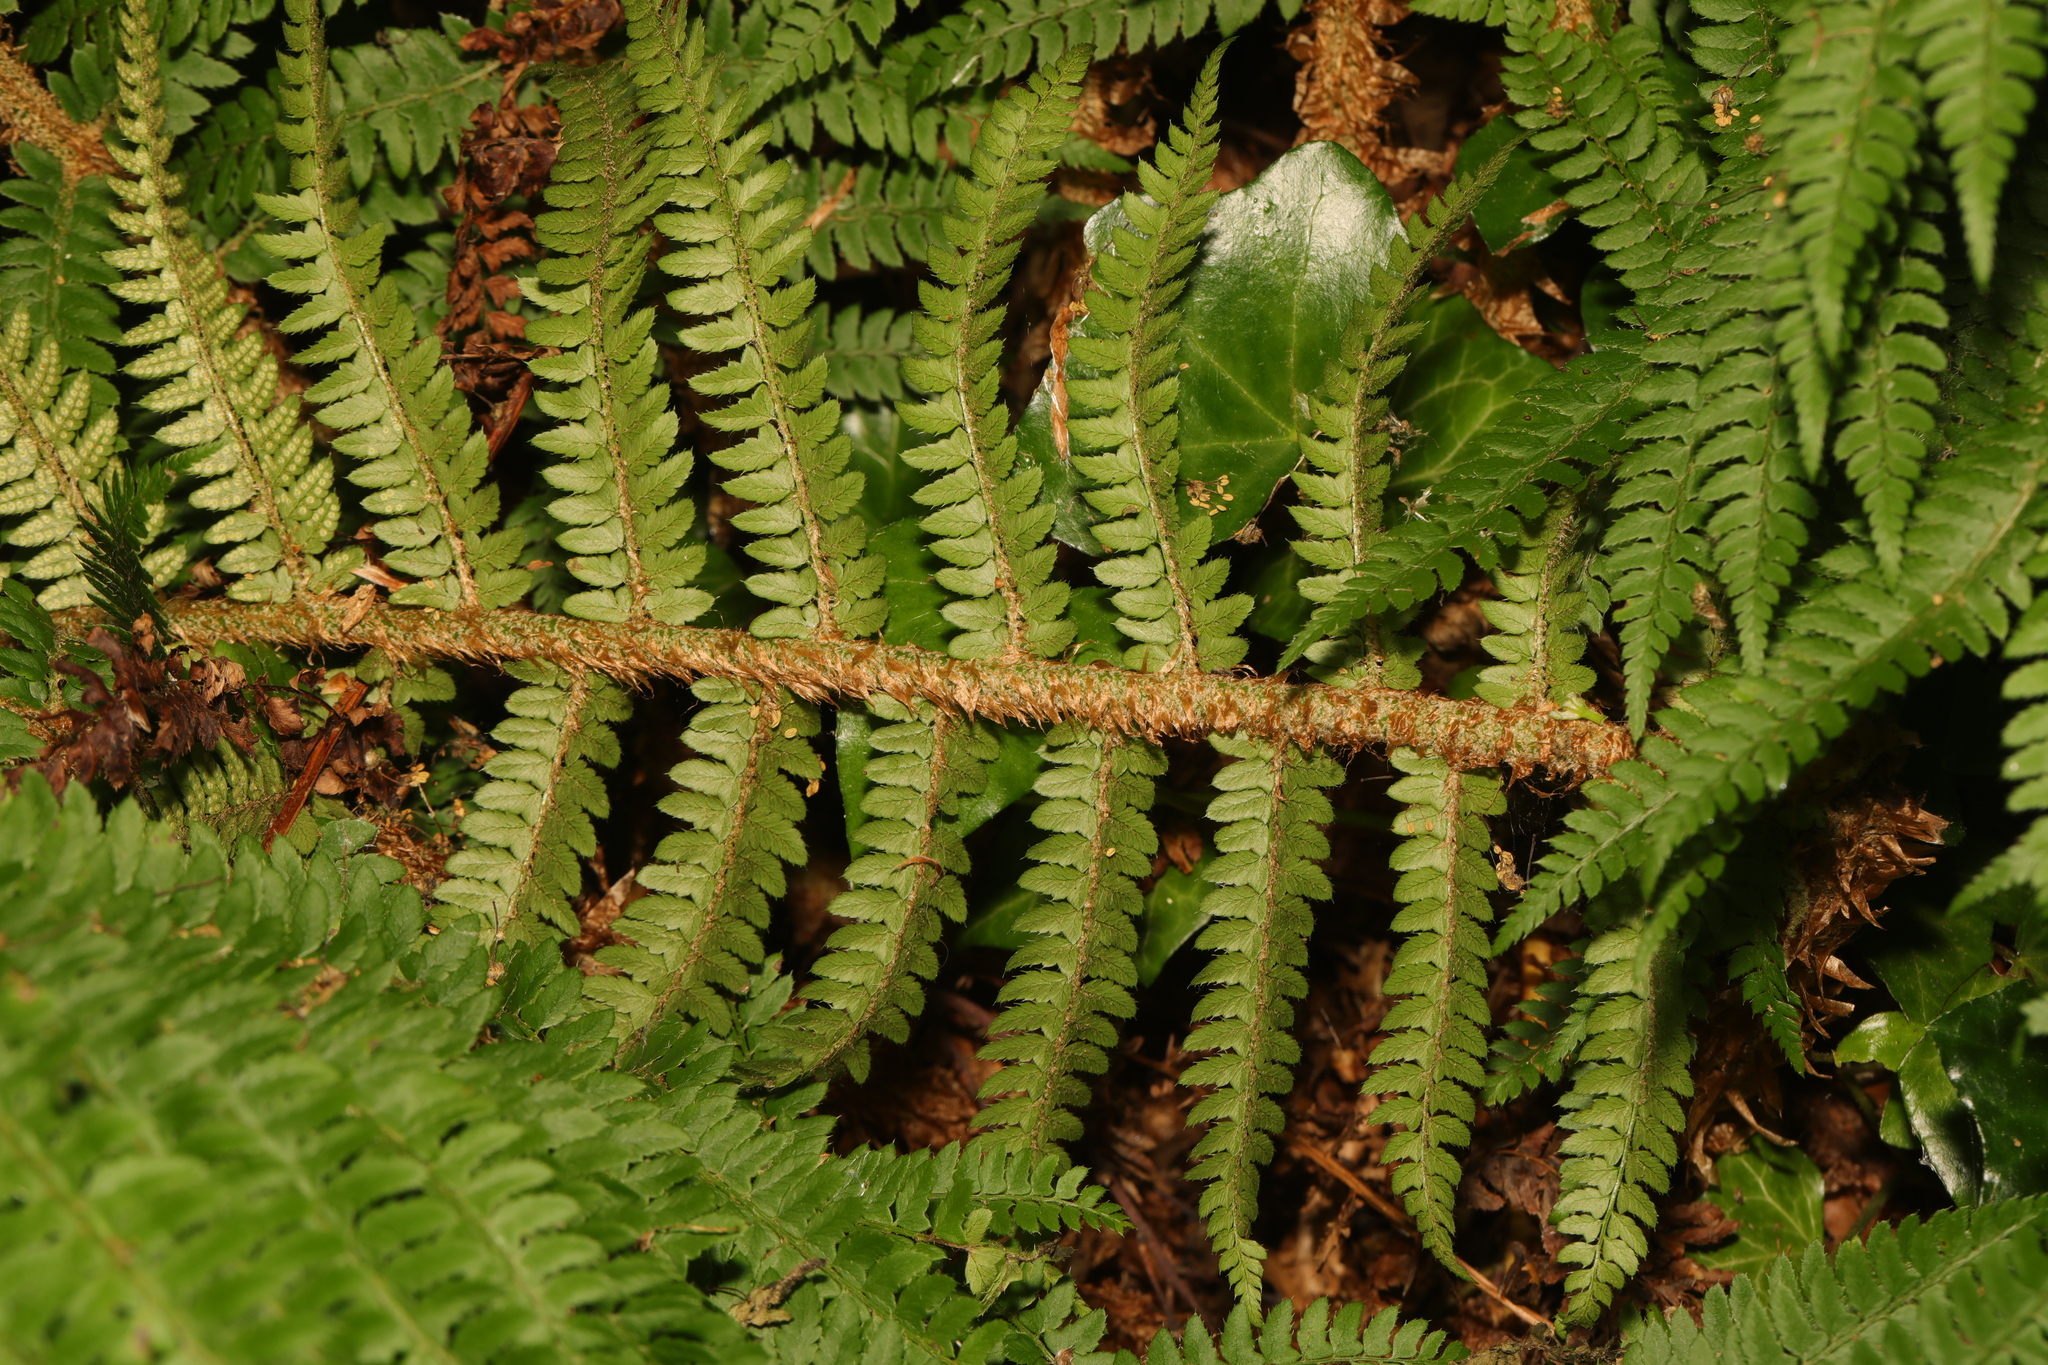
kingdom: Plantae
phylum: Tracheophyta
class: Polypodiopsida
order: Polypodiales
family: Dryopteridaceae
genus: Polystichum
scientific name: Polystichum setiferum
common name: Soft shield-fern
